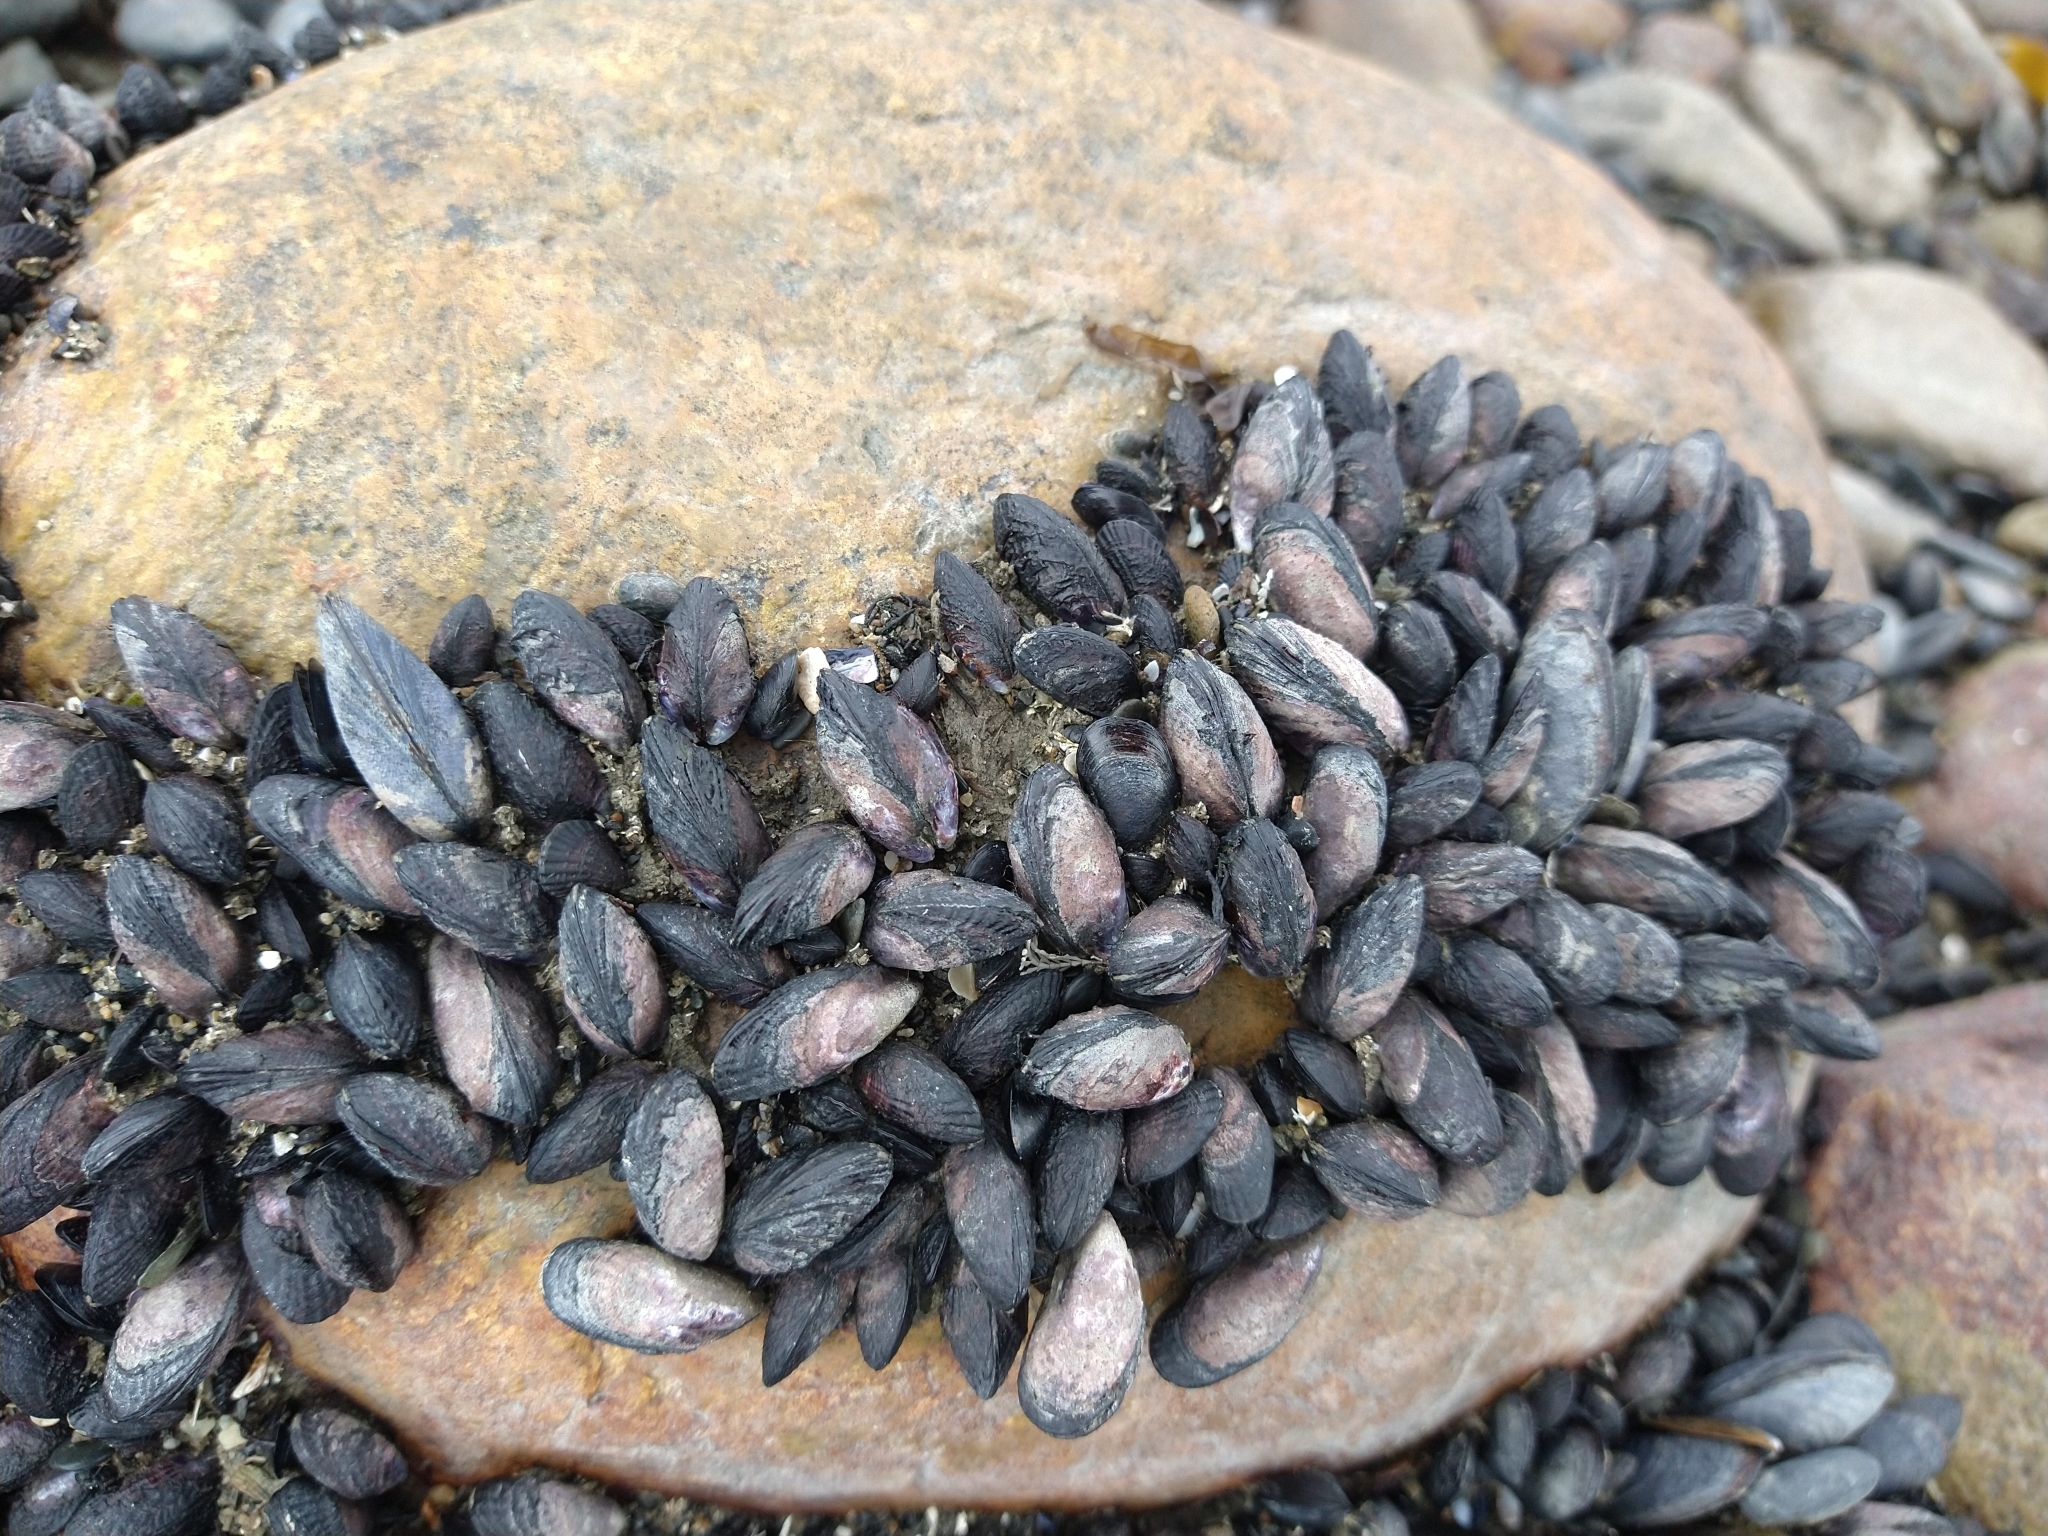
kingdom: Animalia
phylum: Mollusca
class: Bivalvia
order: Mytilida
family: Mytilidae
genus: Perumytilus
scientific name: Perumytilus purpuratus
